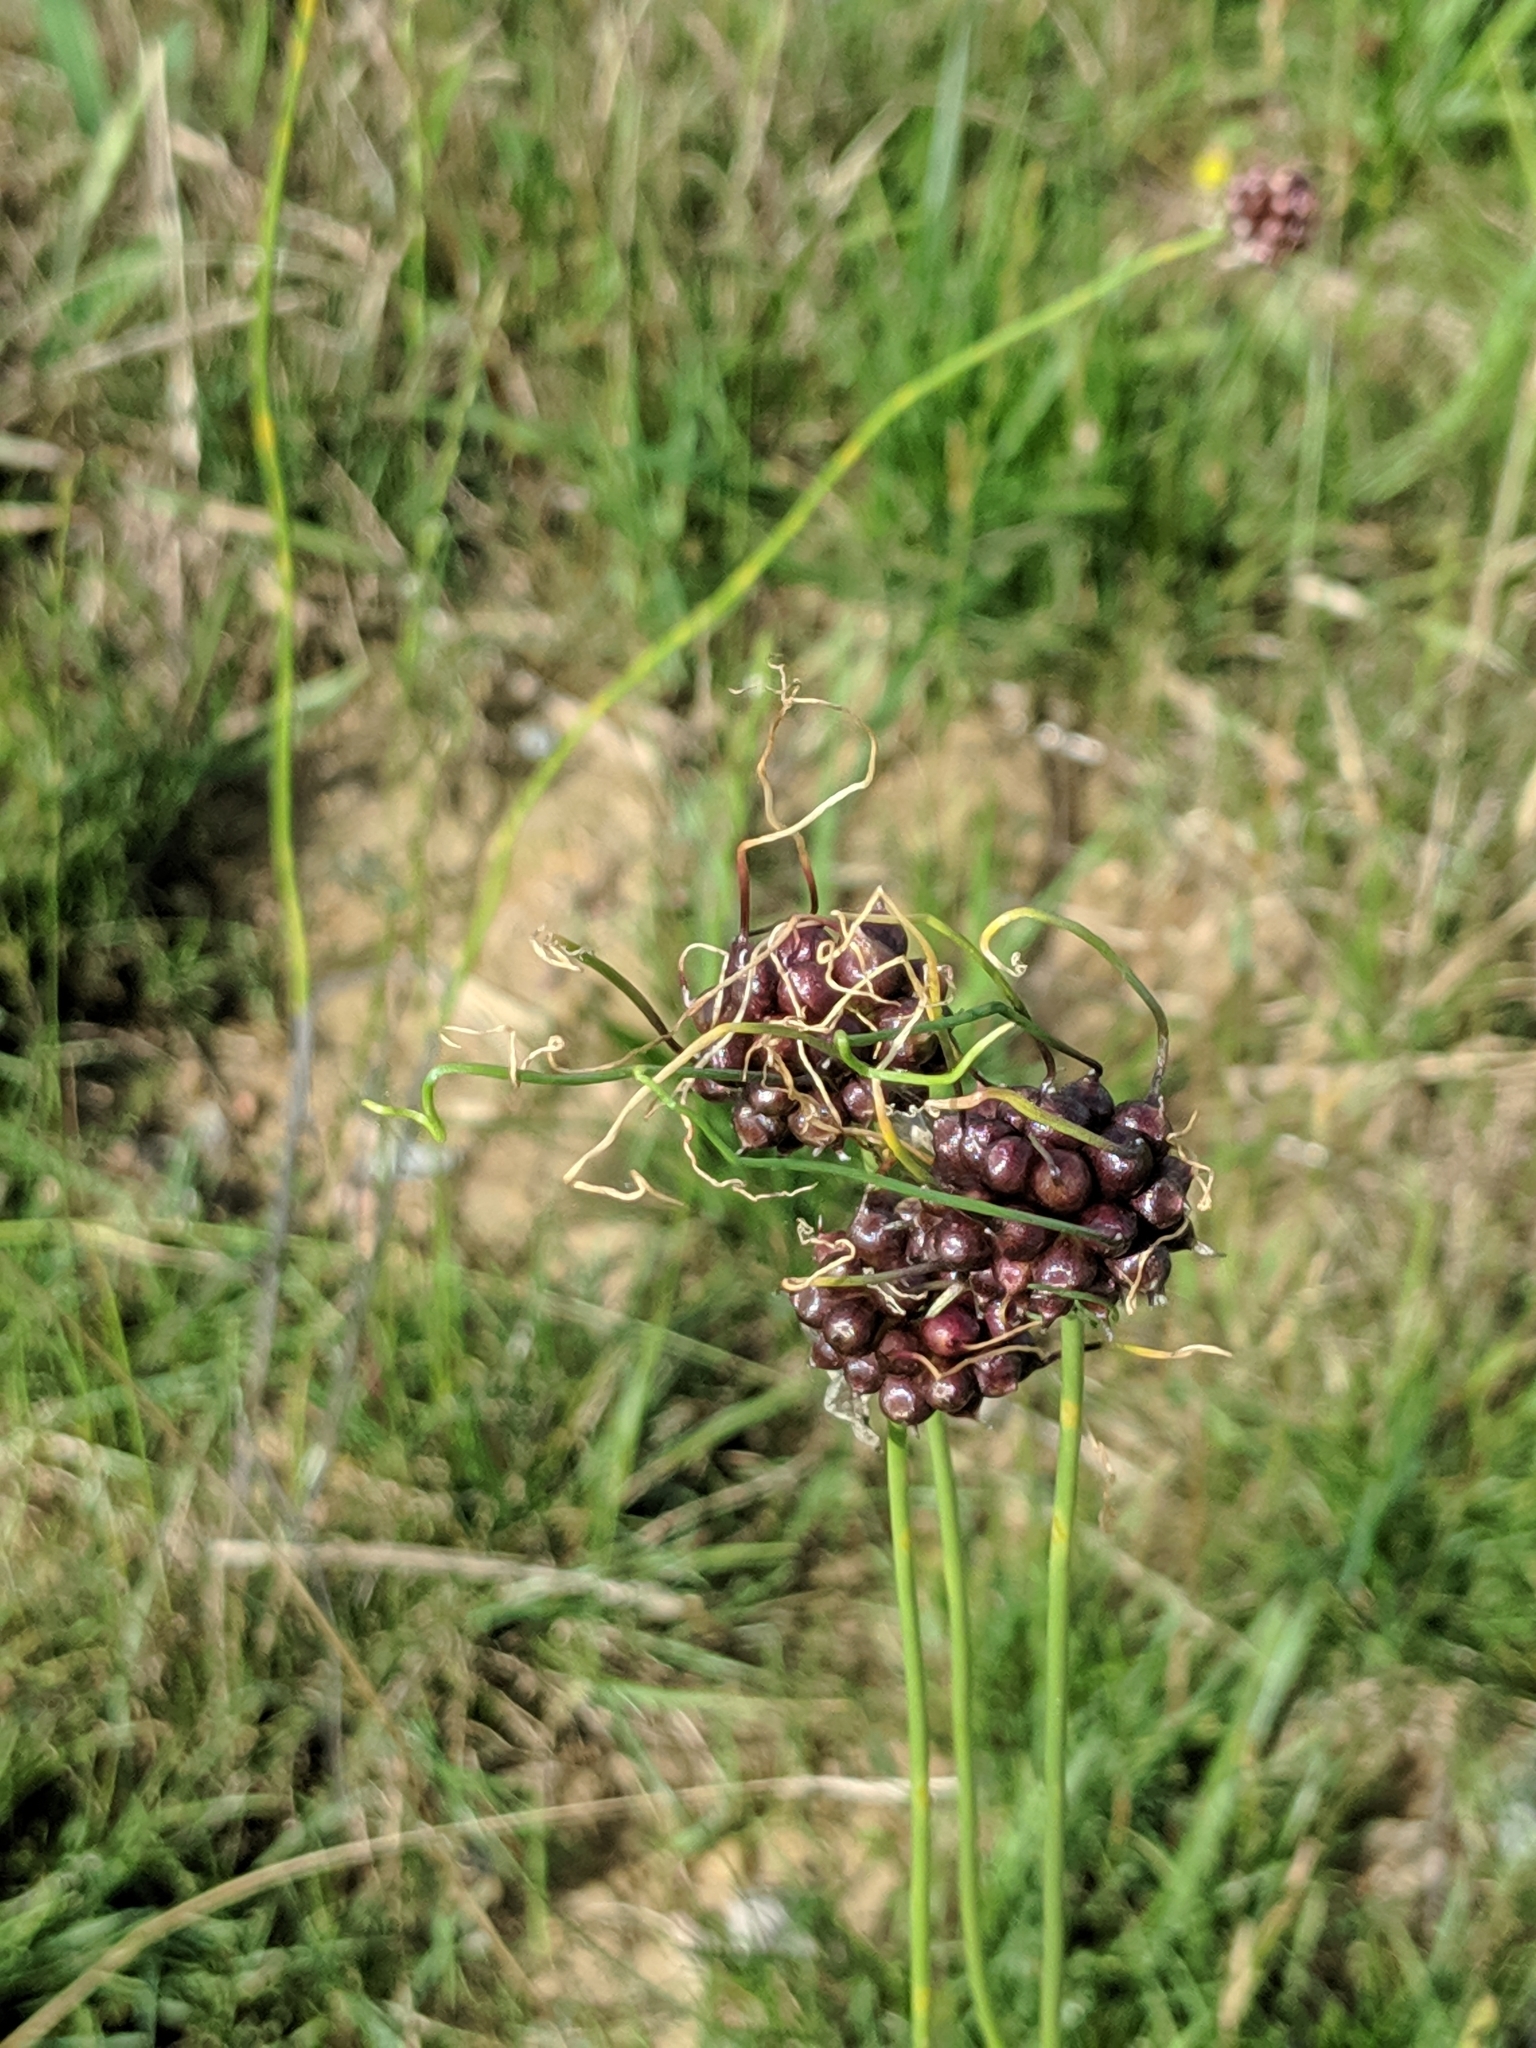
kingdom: Plantae
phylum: Tracheophyta
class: Liliopsida
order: Asparagales
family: Amaryllidaceae
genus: Allium
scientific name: Allium vineale
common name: Crow garlic
